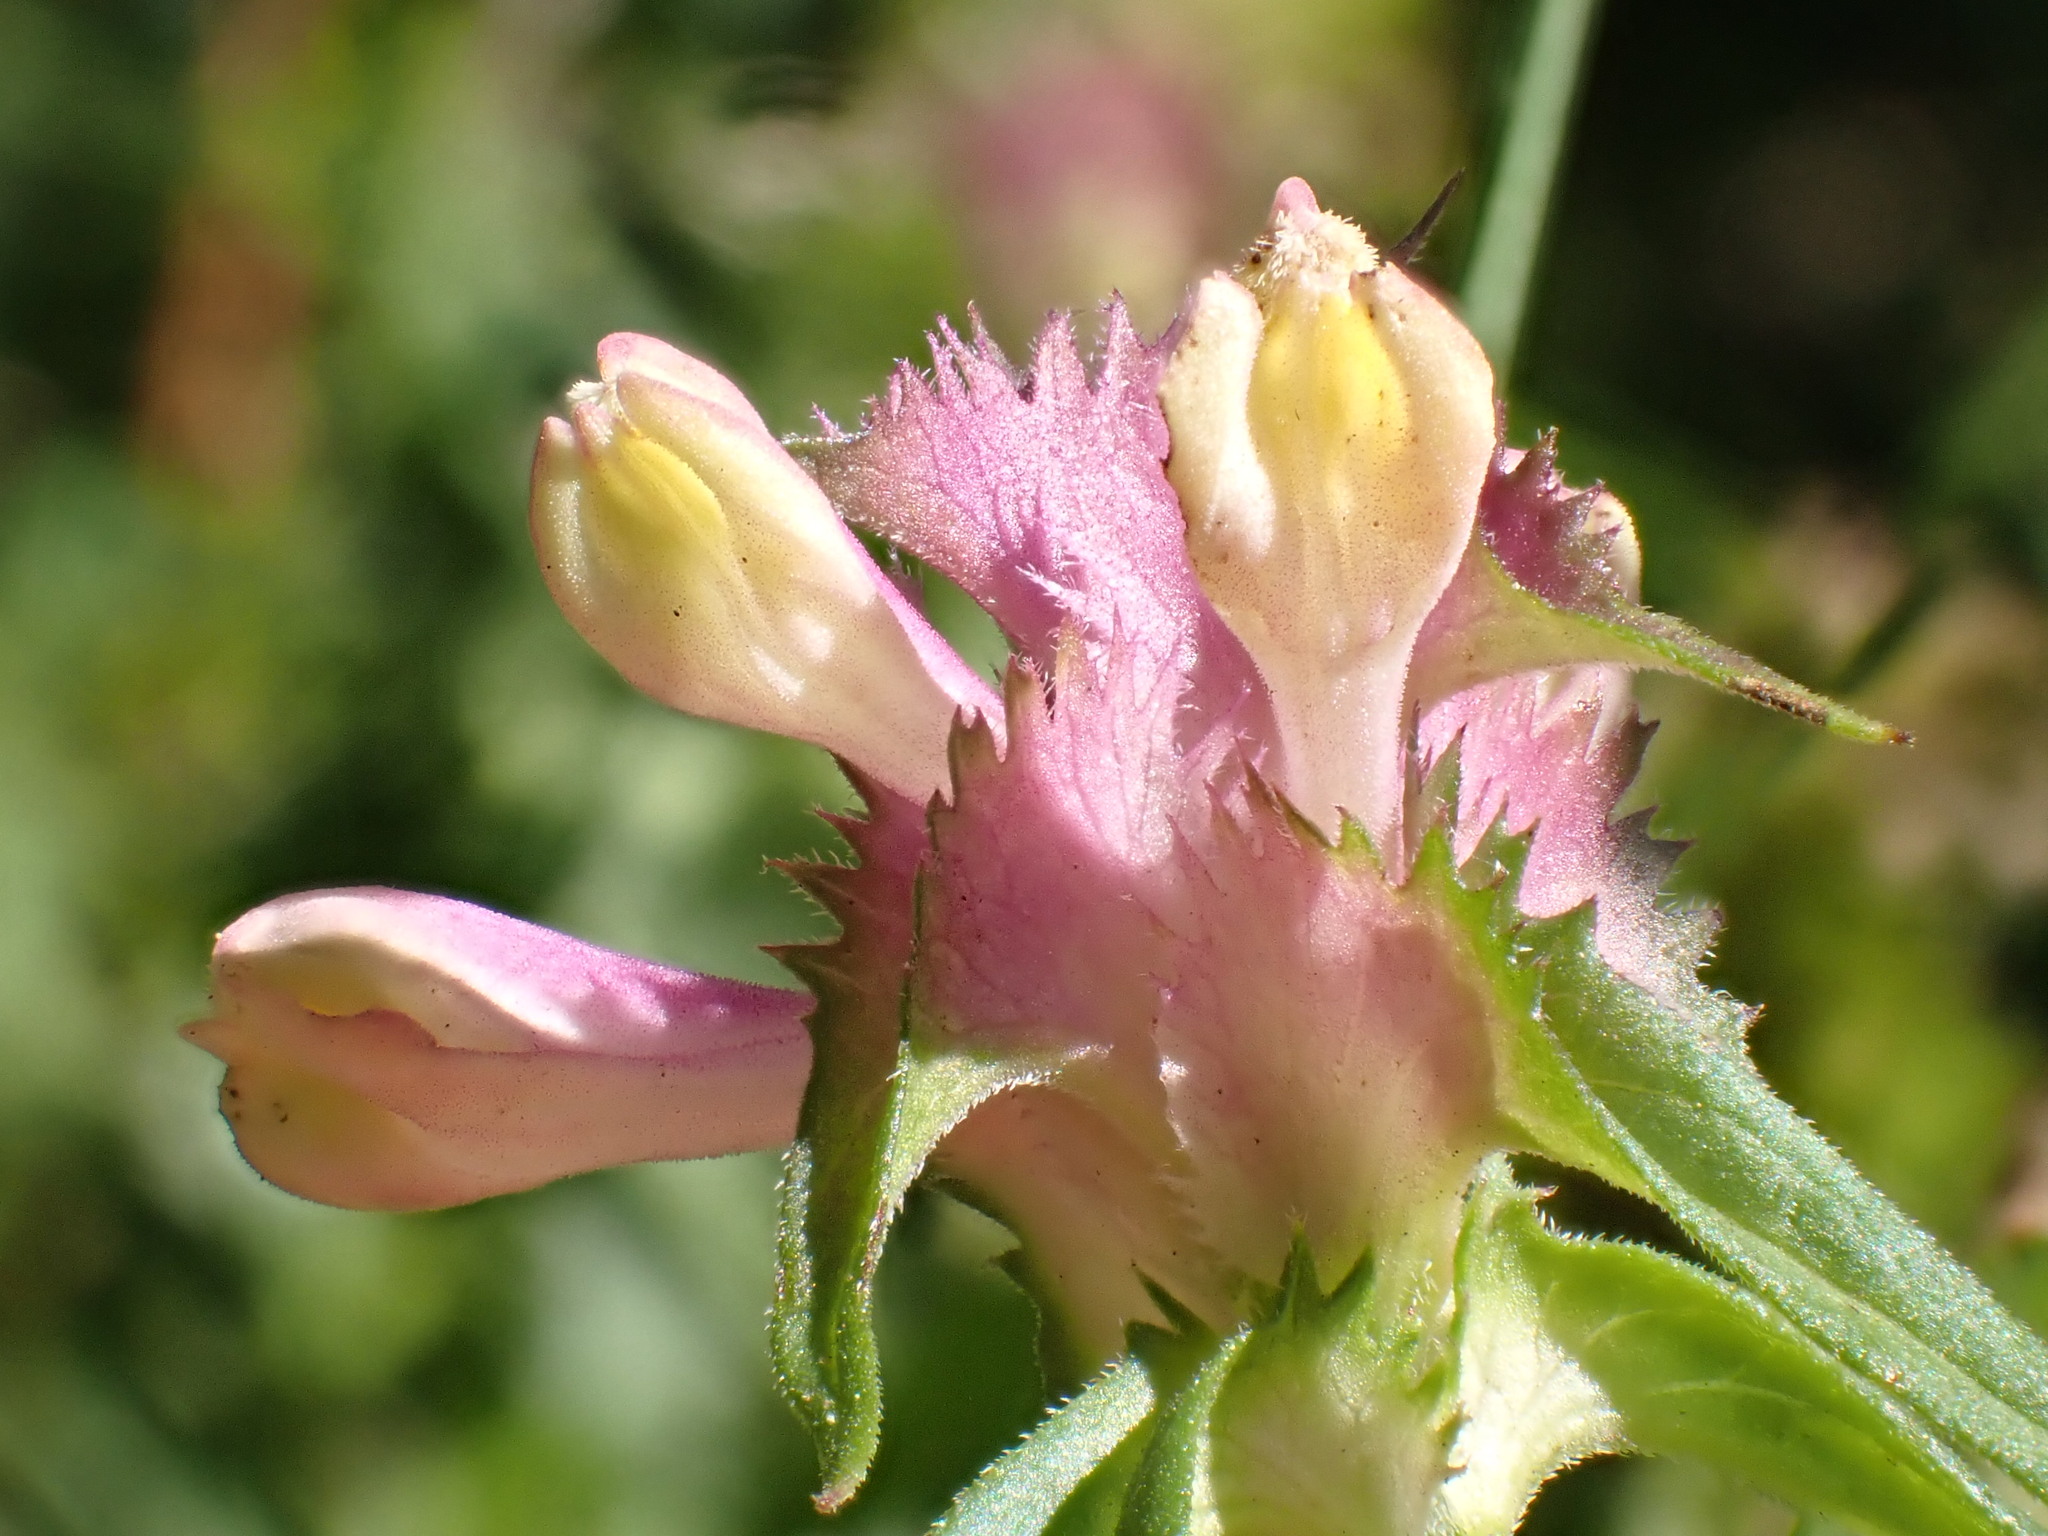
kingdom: Plantae
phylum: Tracheophyta
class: Magnoliopsida
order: Lamiales
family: Orobanchaceae
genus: Melampyrum
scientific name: Melampyrum cristatum
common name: Crested cow-wheat
